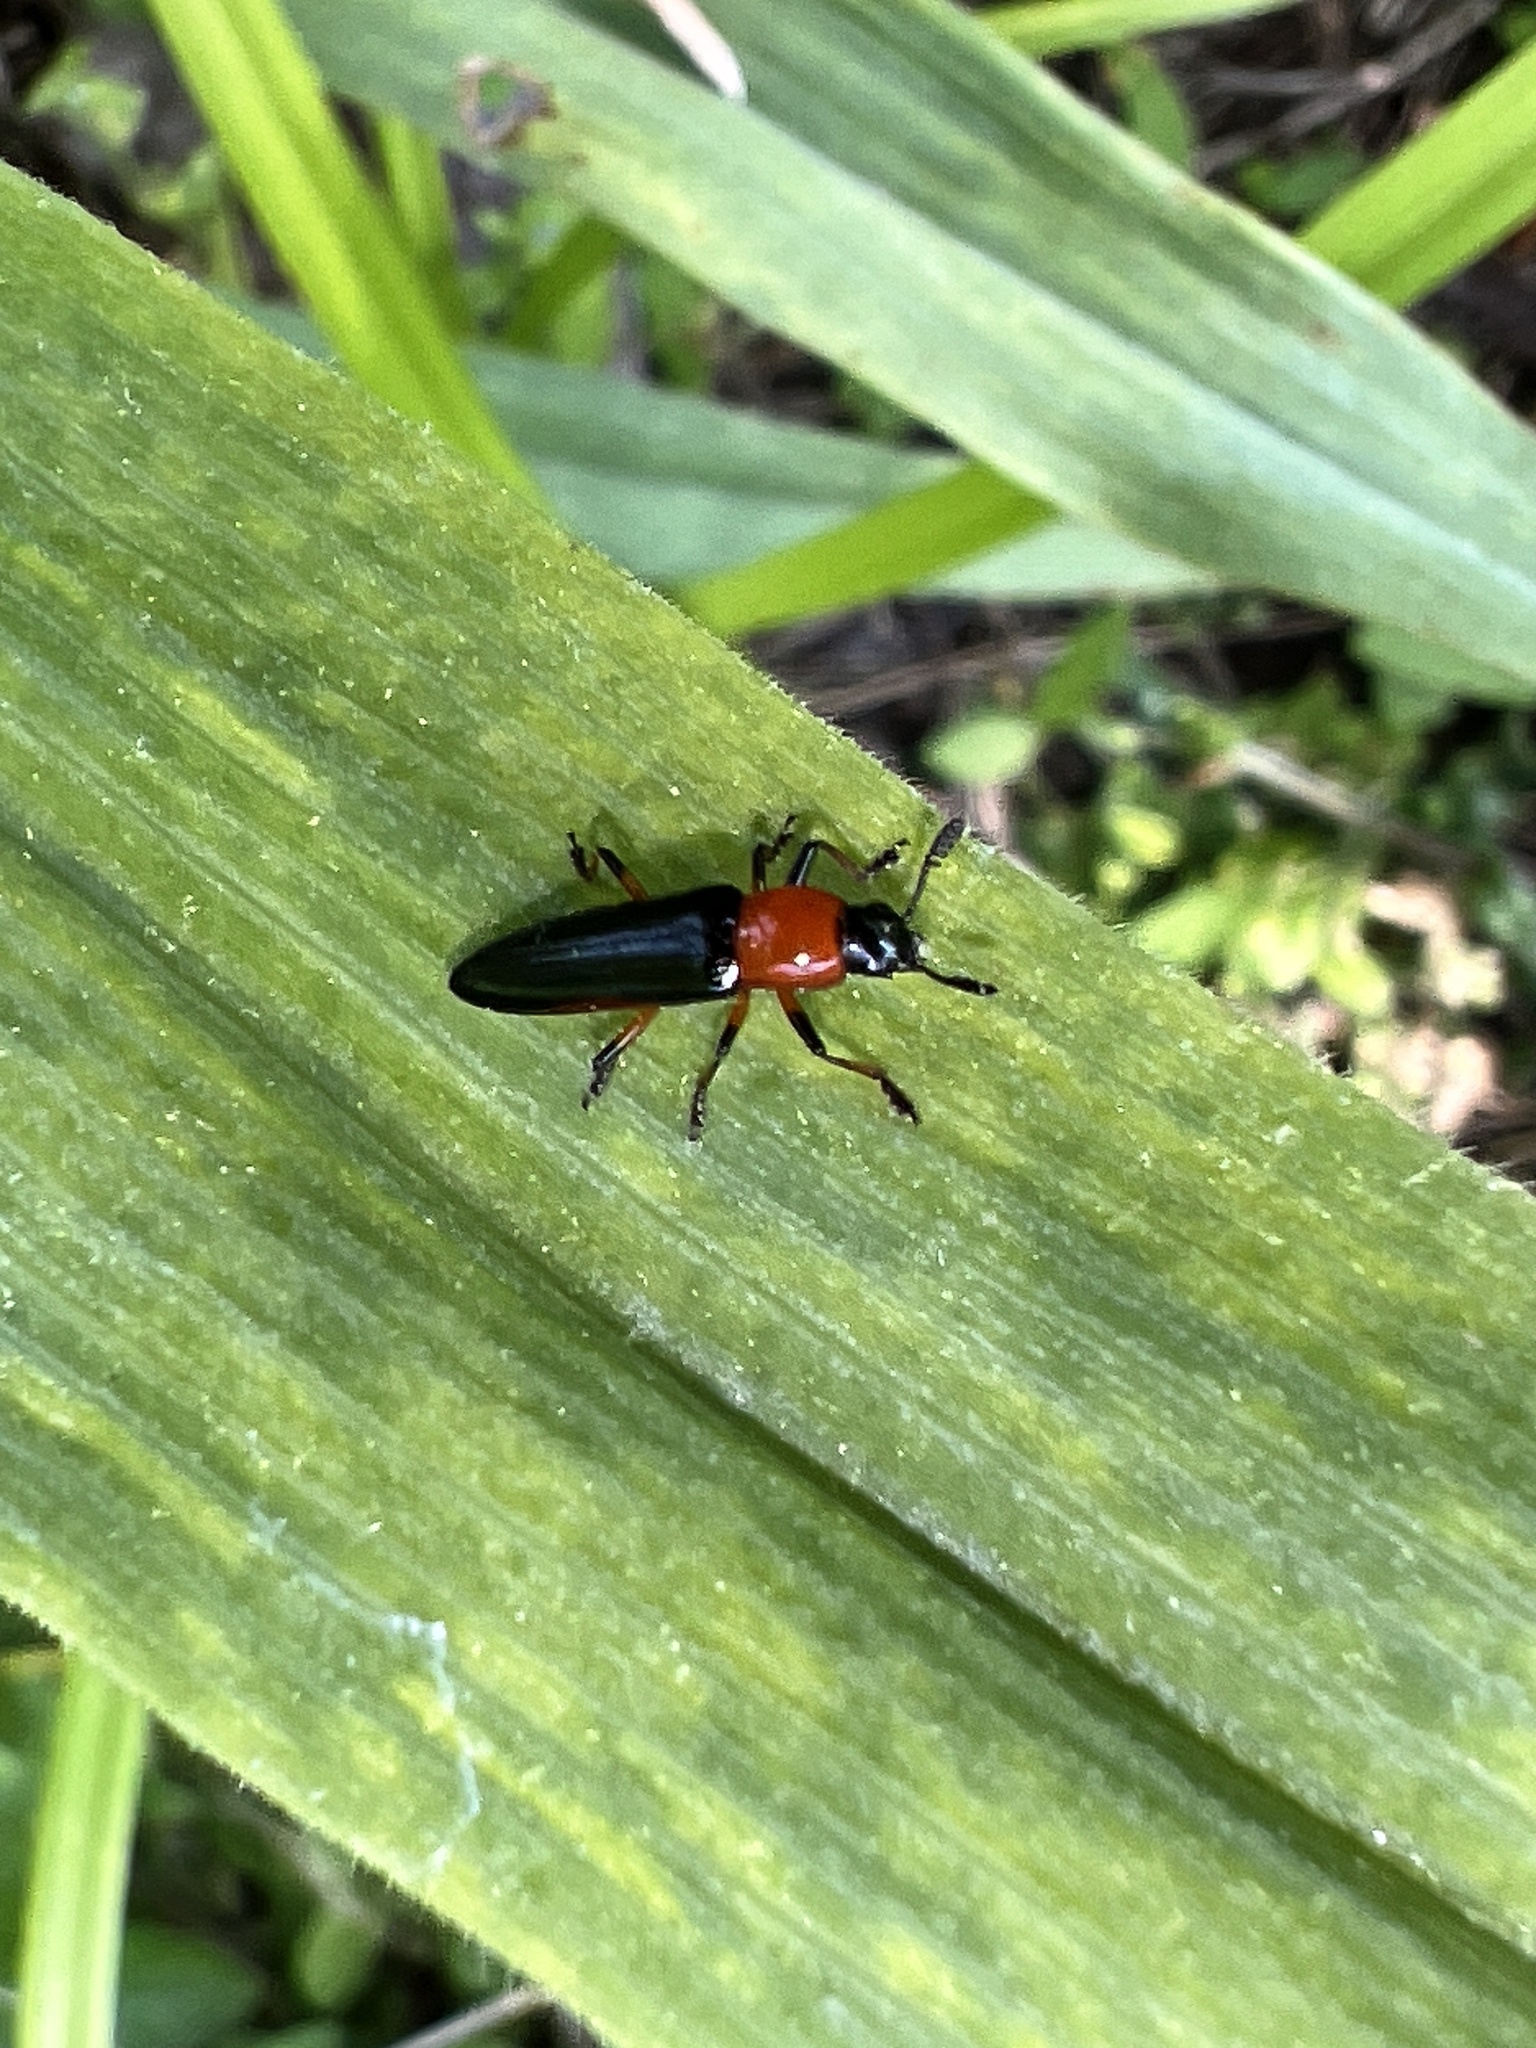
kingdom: Animalia
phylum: Arthropoda
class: Insecta
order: Coleoptera
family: Erotylidae
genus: Languria
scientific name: Languria angustata
